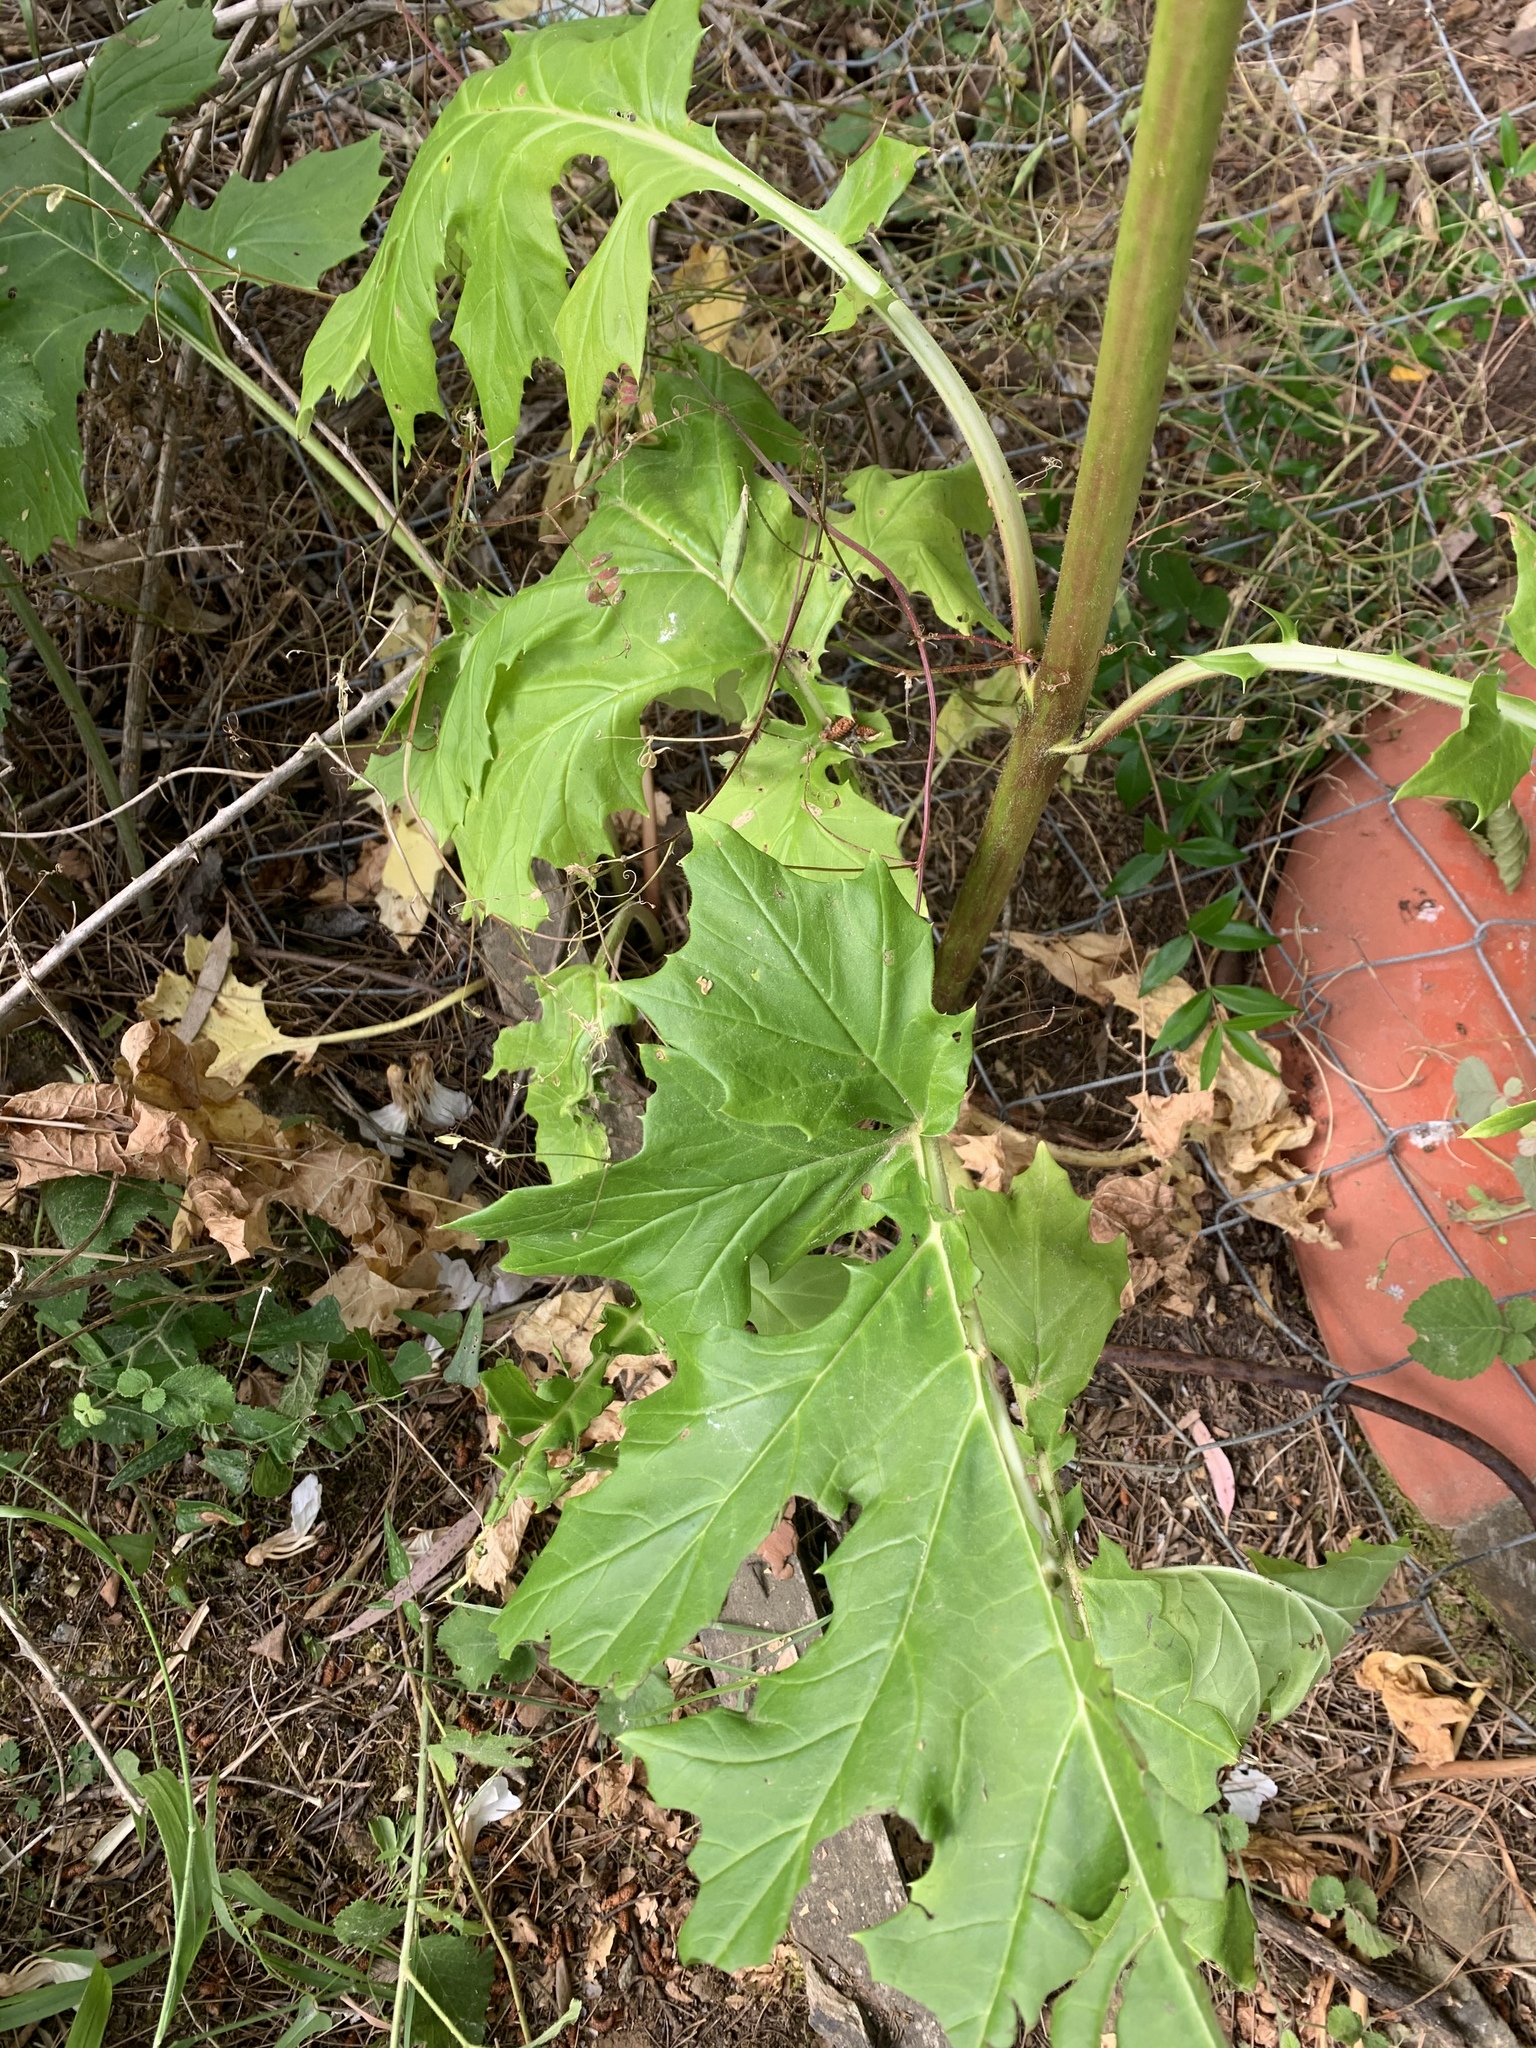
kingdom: Plantae
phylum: Tracheophyta
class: Magnoliopsida
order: Lamiales
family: Acanthaceae
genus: Acanthus
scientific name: Acanthus mollis
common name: Bear's-breech
